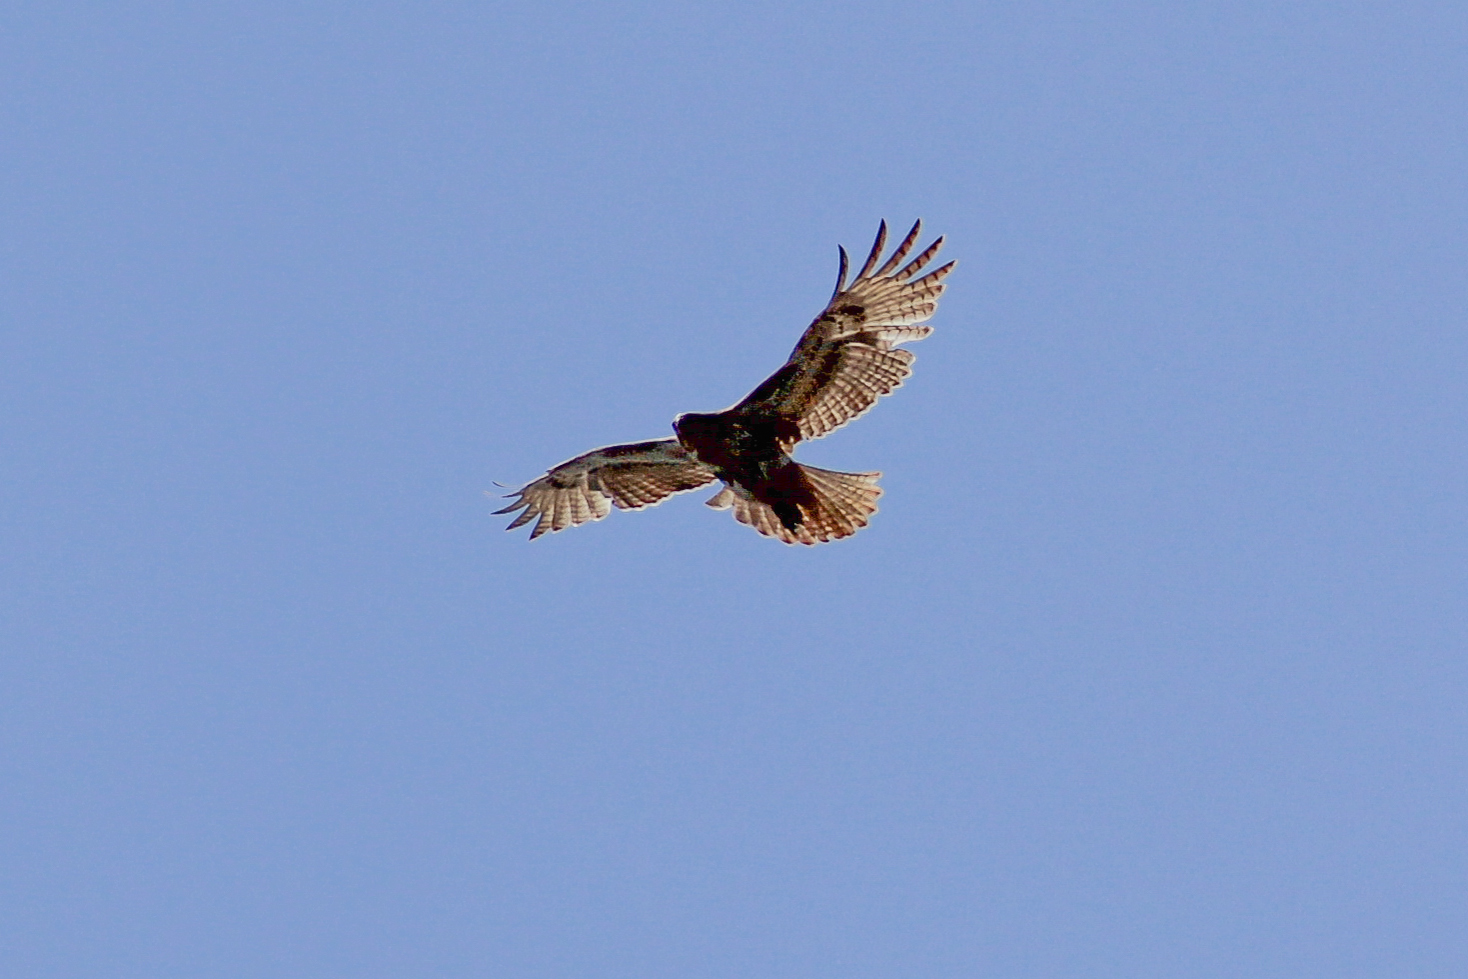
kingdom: Animalia
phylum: Chordata
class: Aves
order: Accipitriformes
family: Accipitridae
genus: Buteo
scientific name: Buteo jamaicensis
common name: Red-tailed hawk
